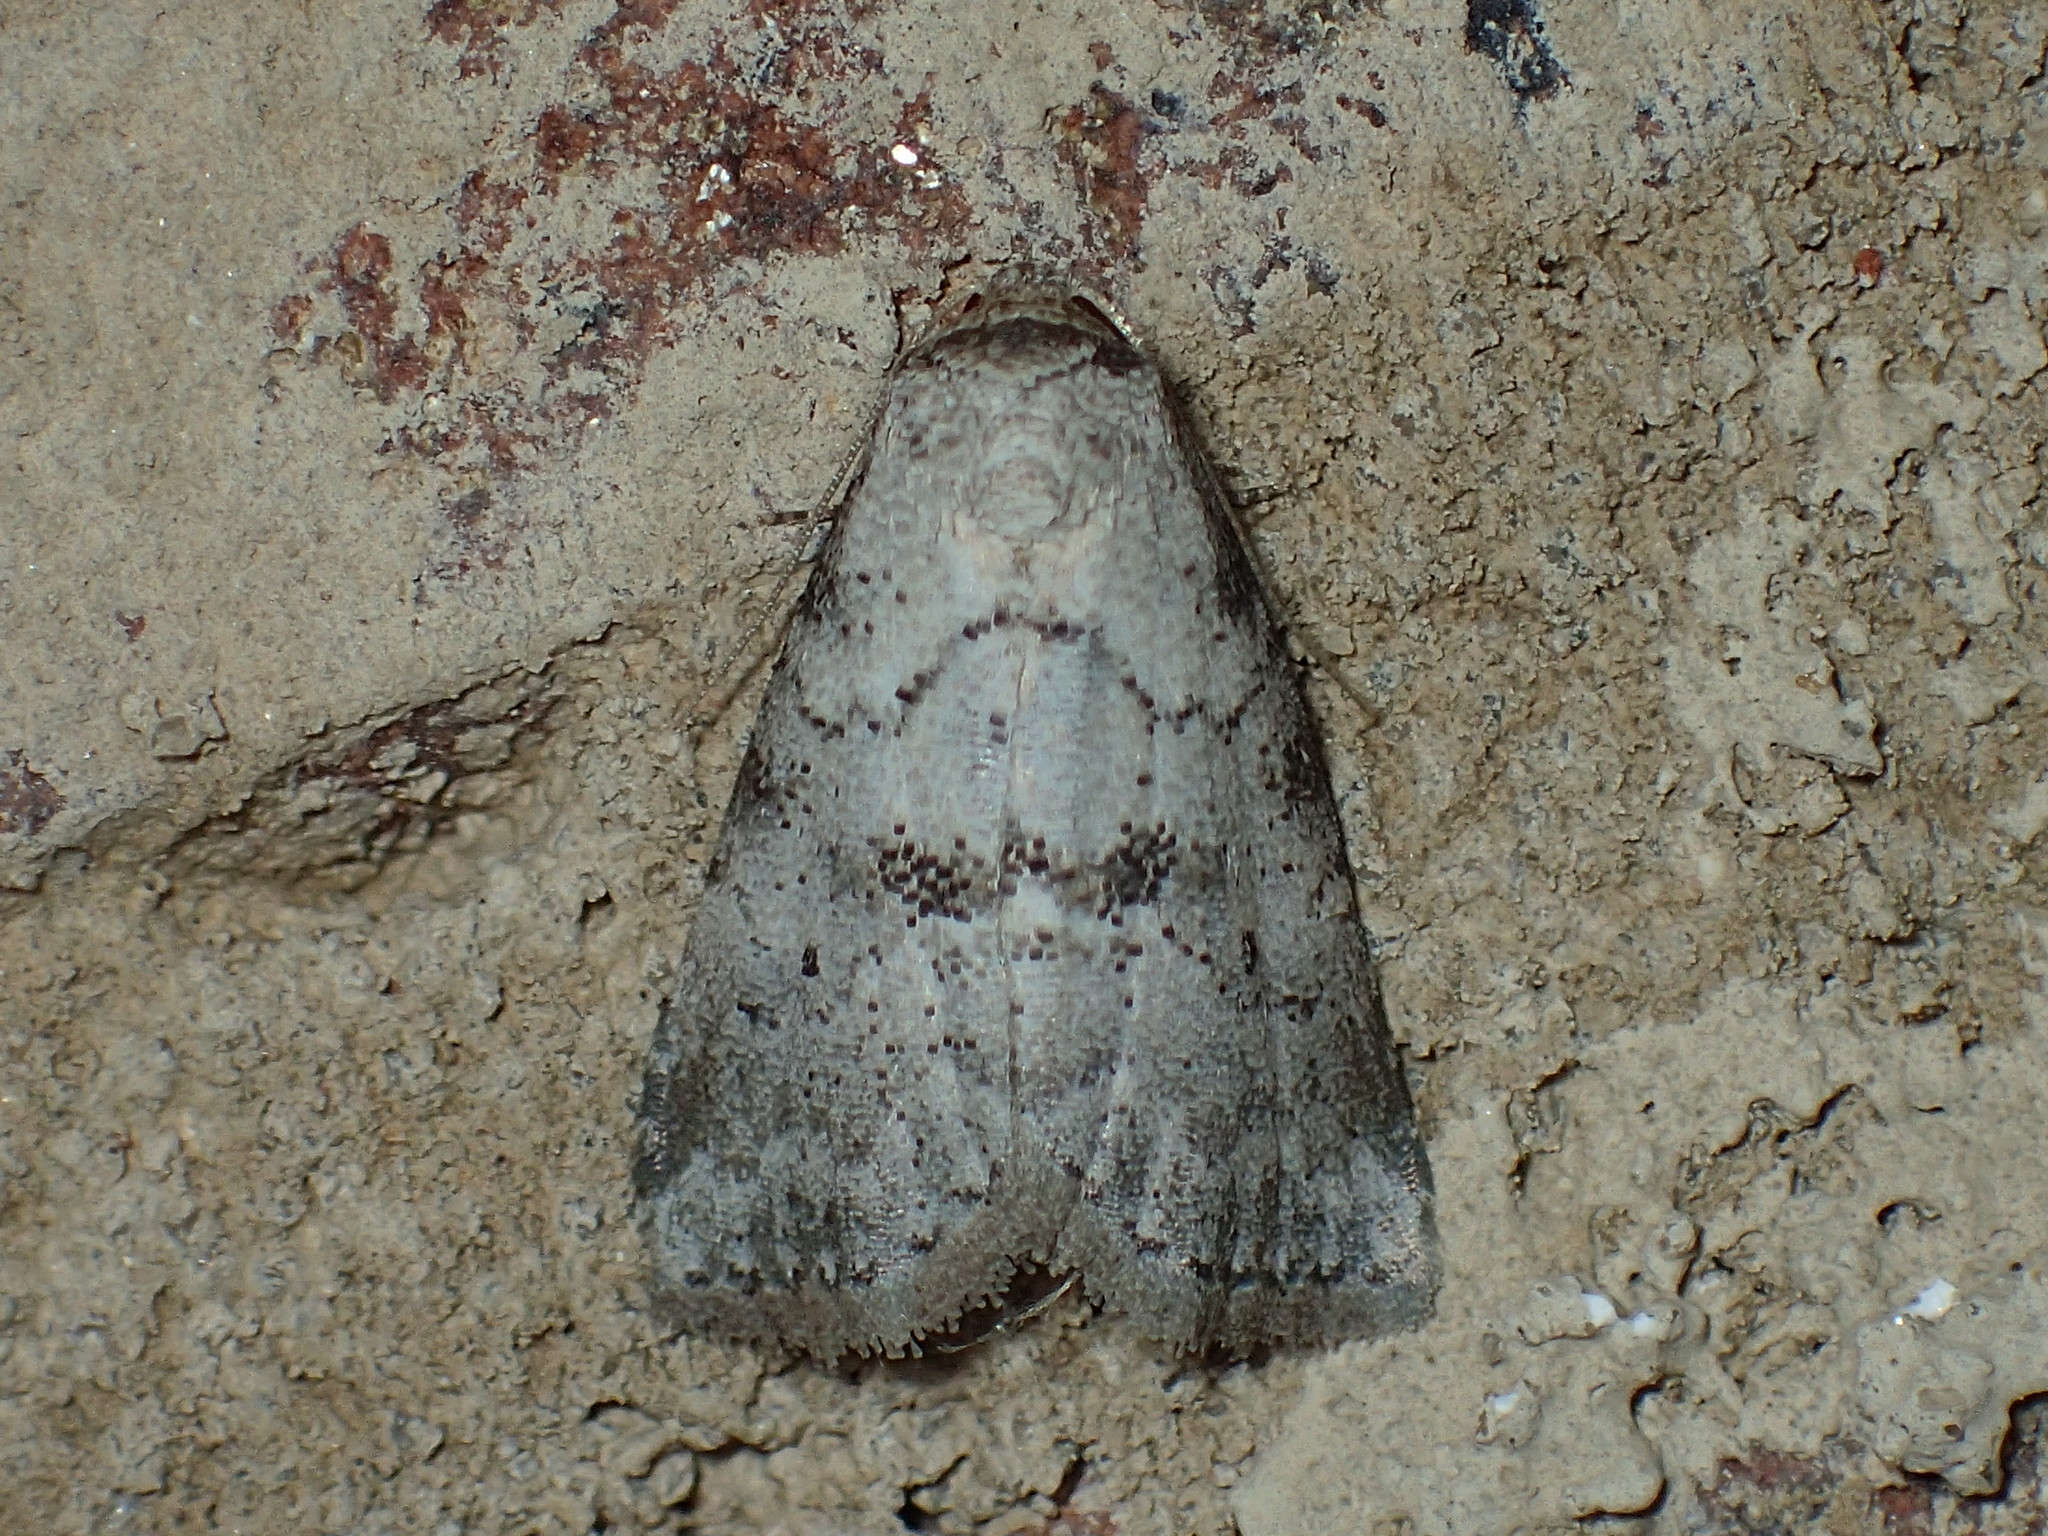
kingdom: Animalia
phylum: Arthropoda
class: Insecta
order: Lepidoptera
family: Erebidae
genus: Hyperstrotia
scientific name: Hyperstrotia pervertens
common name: Dotted graylet
